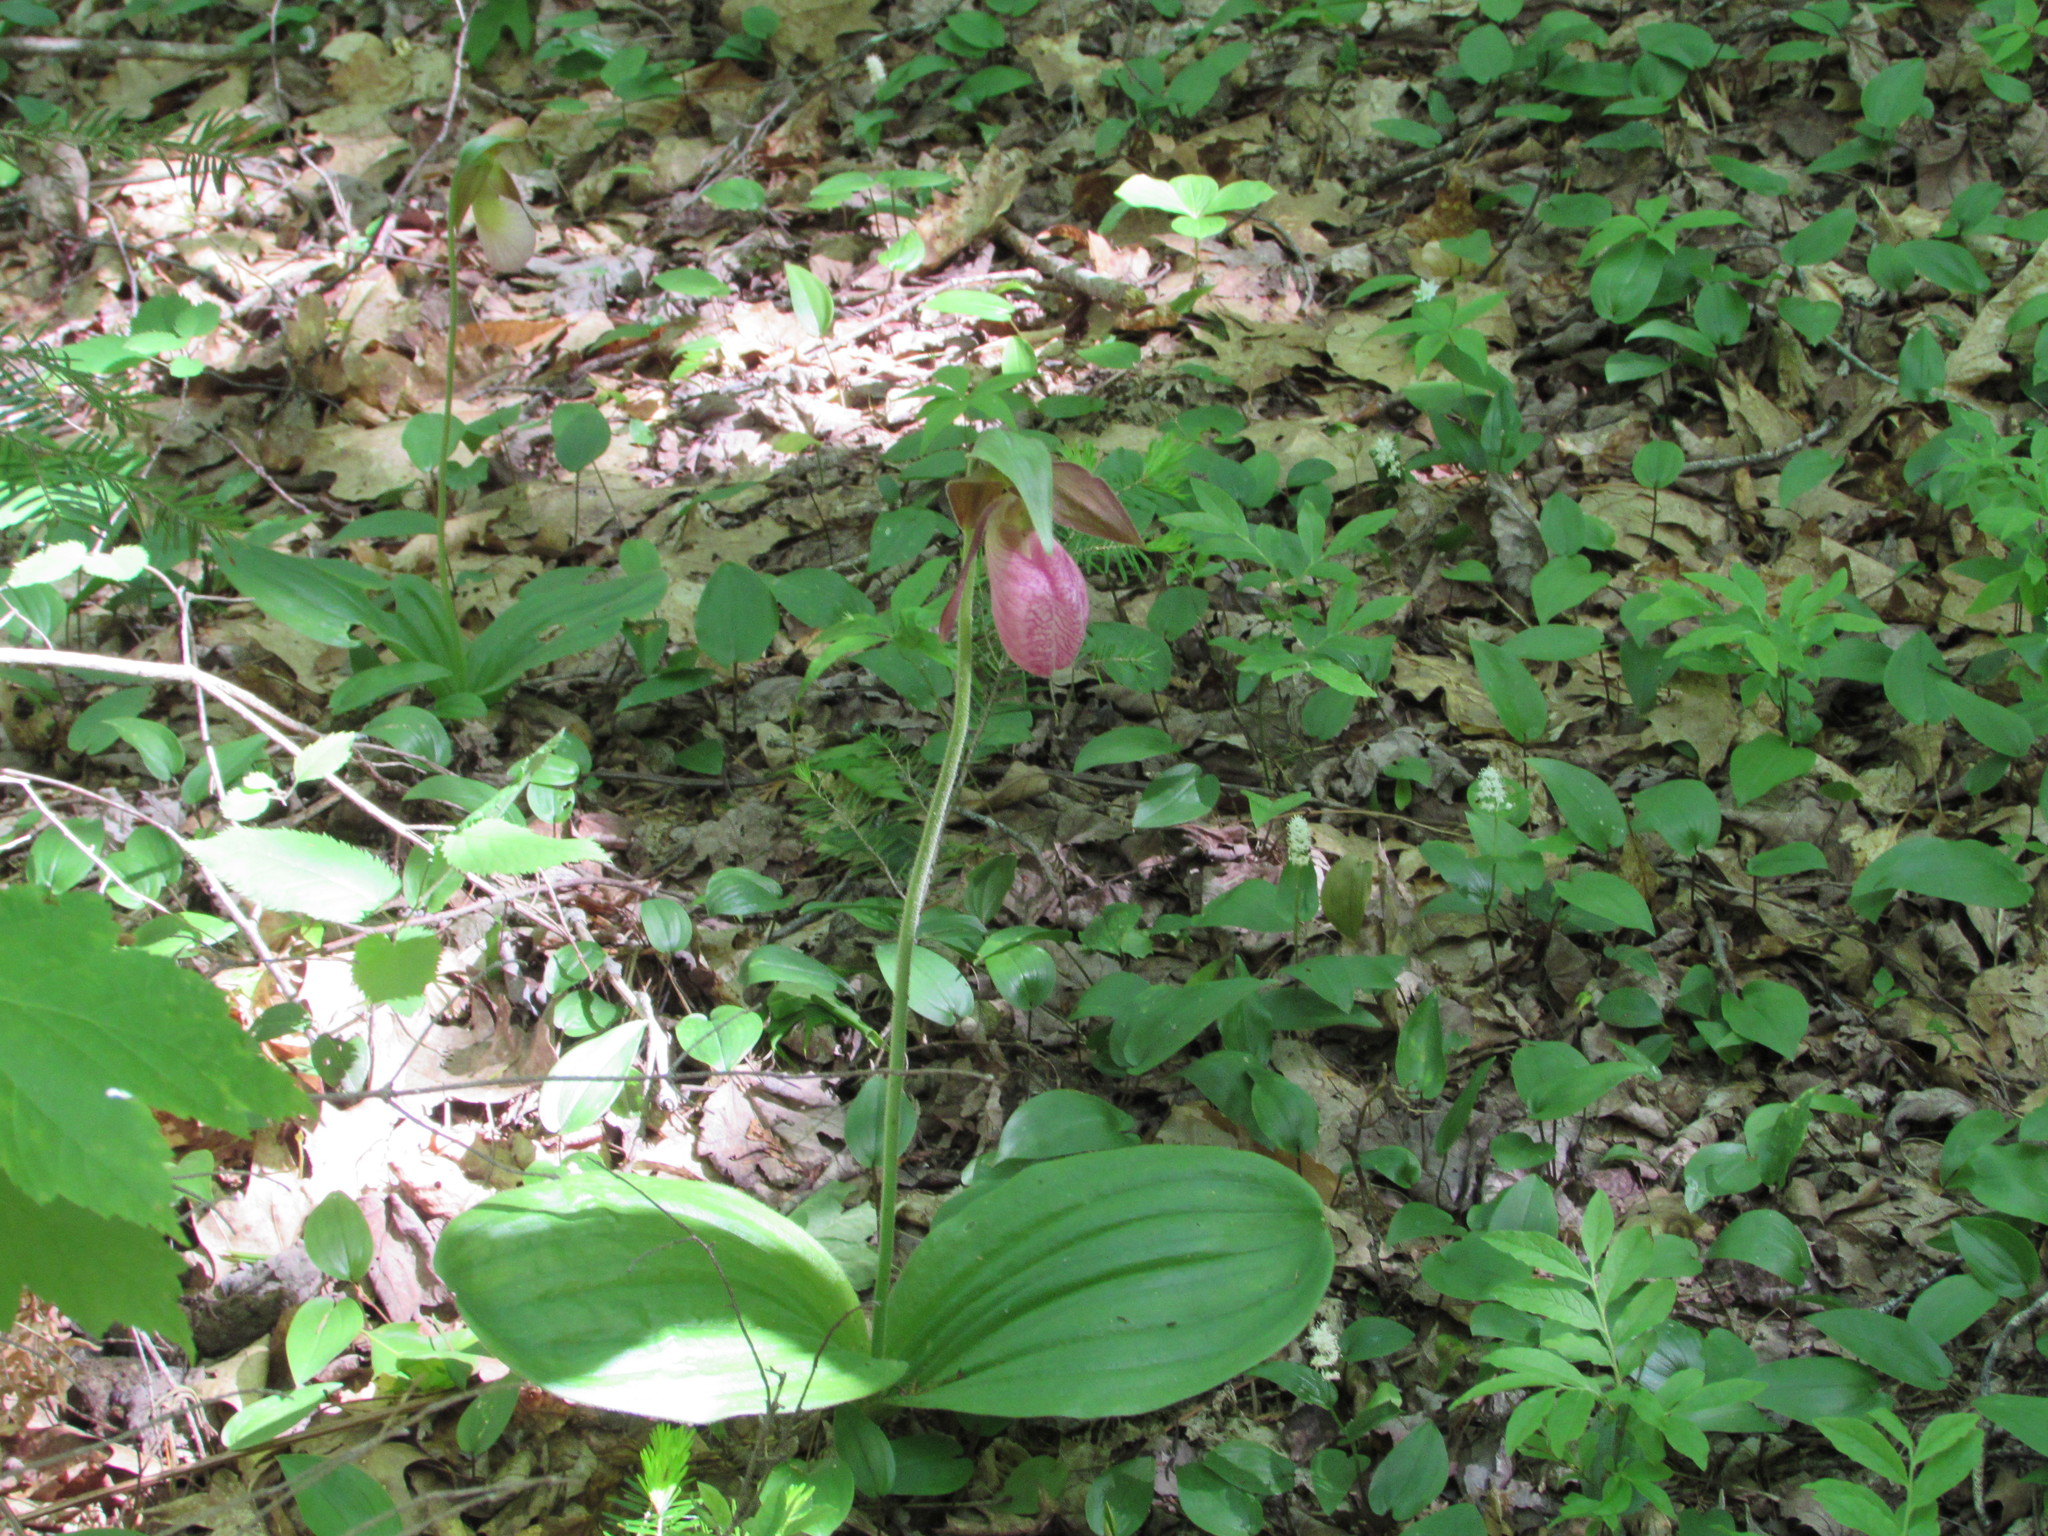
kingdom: Plantae
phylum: Tracheophyta
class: Liliopsida
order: Asparagales
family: Orchidaceae
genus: Cypripedium
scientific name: Cypripedium acaule
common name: Pink lady's-slipper
